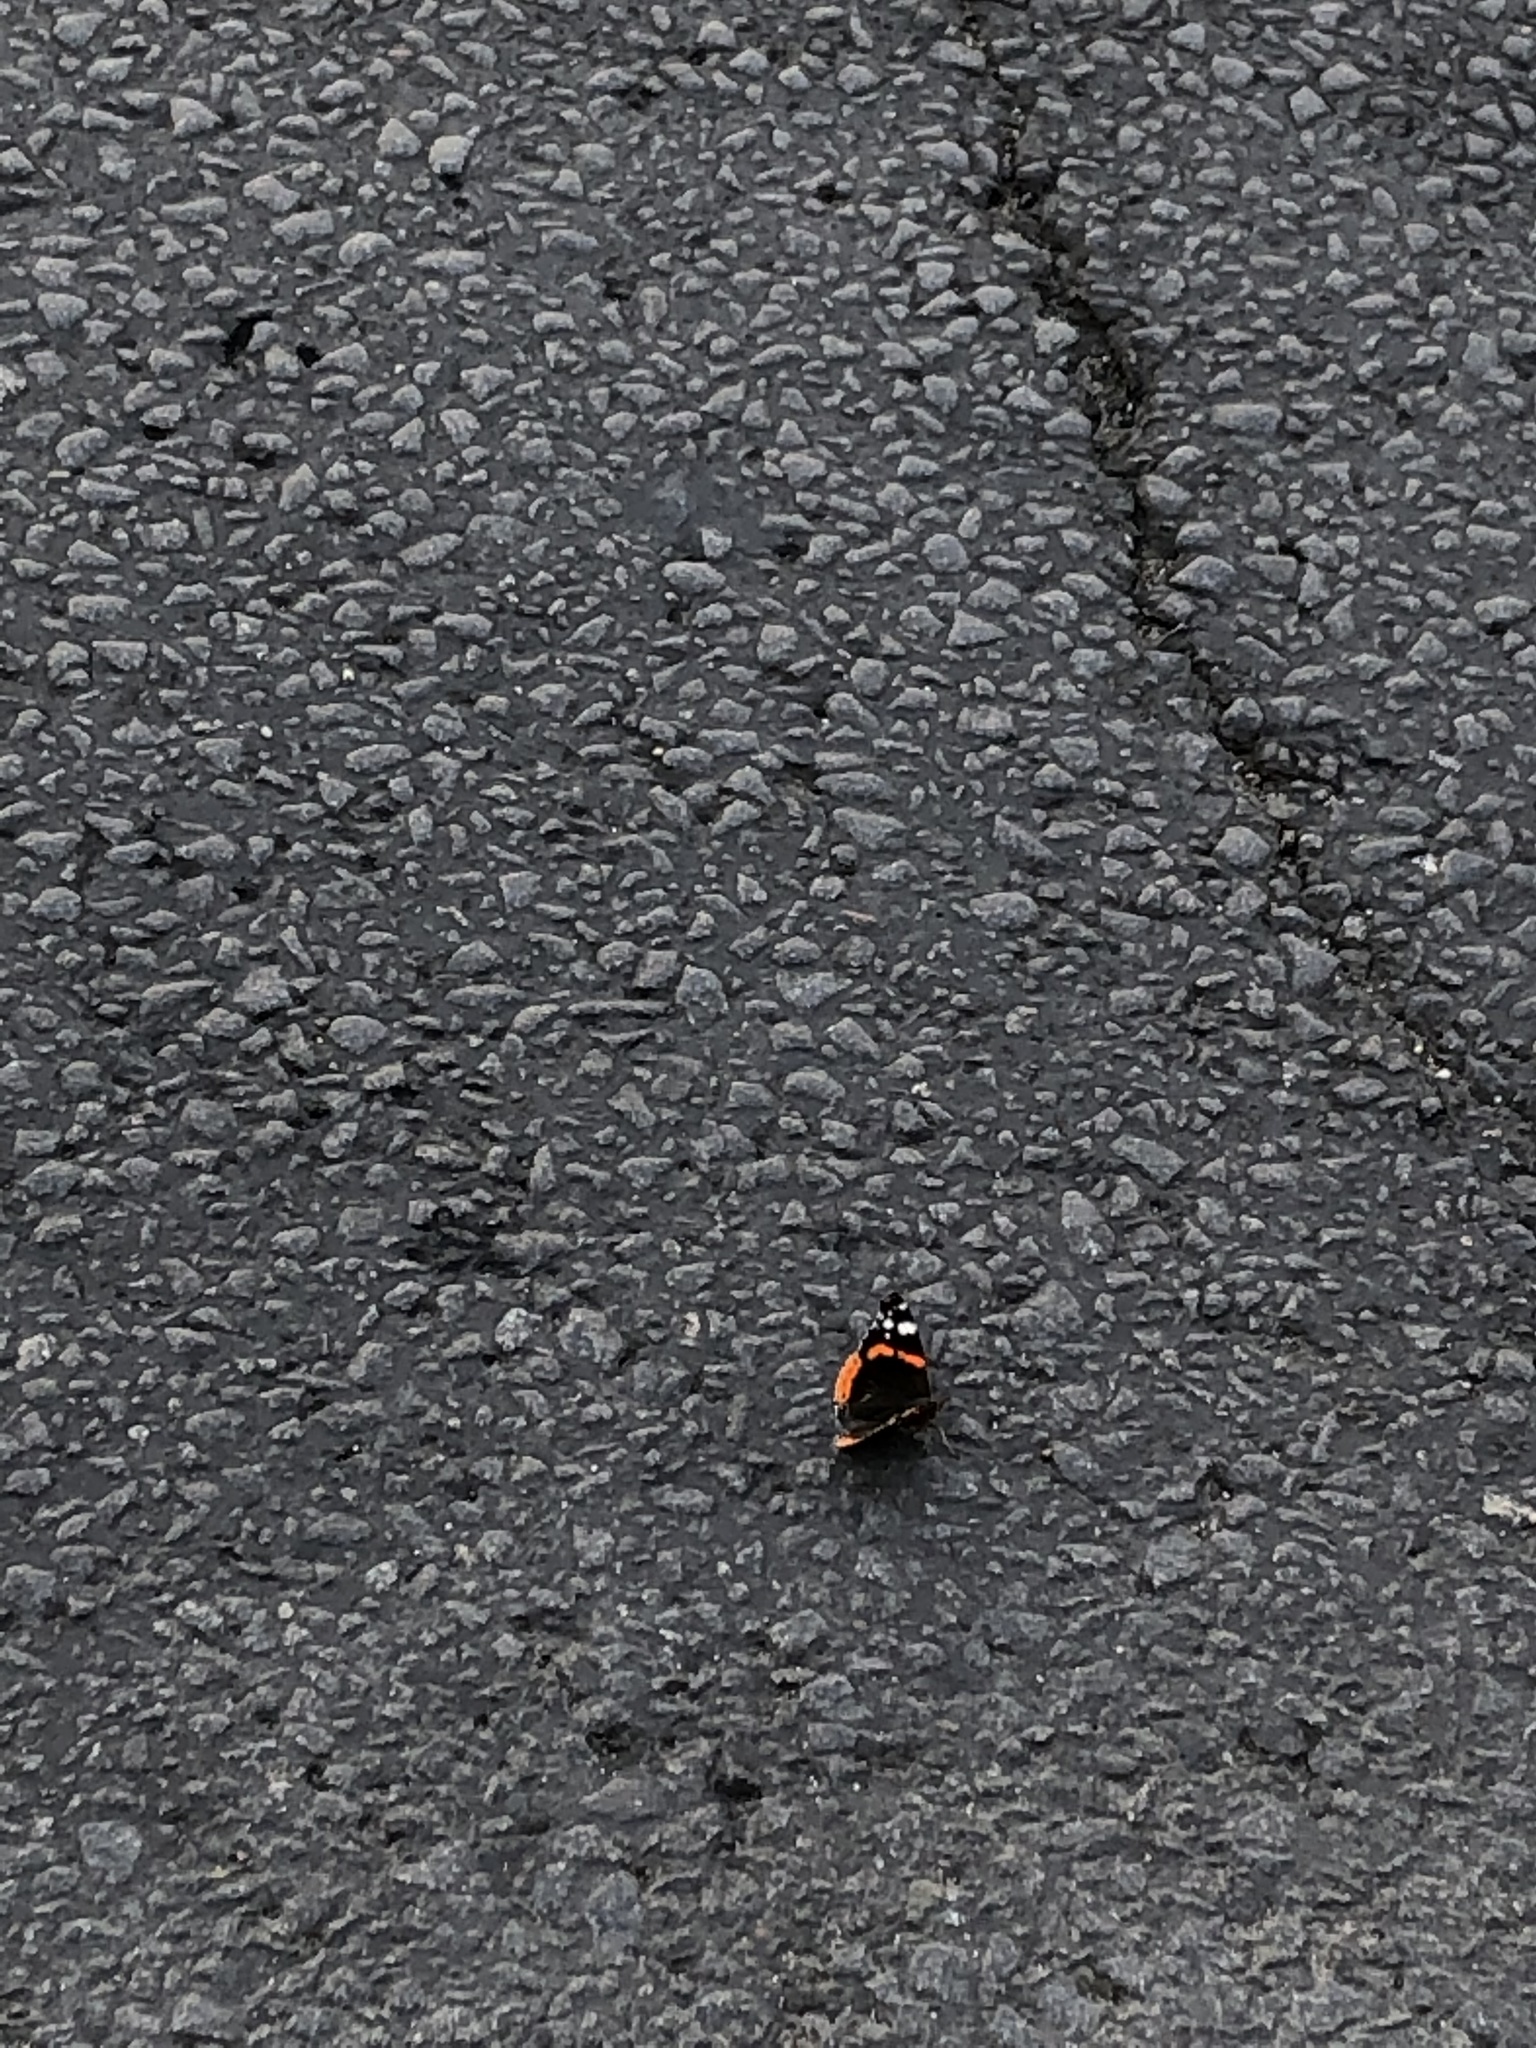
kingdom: Animalia
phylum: Arthropoda
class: Insecta
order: Lepidoptera
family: Nymphalidae
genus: Vanessa
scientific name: Vanessa atalanta
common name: Red admiral
